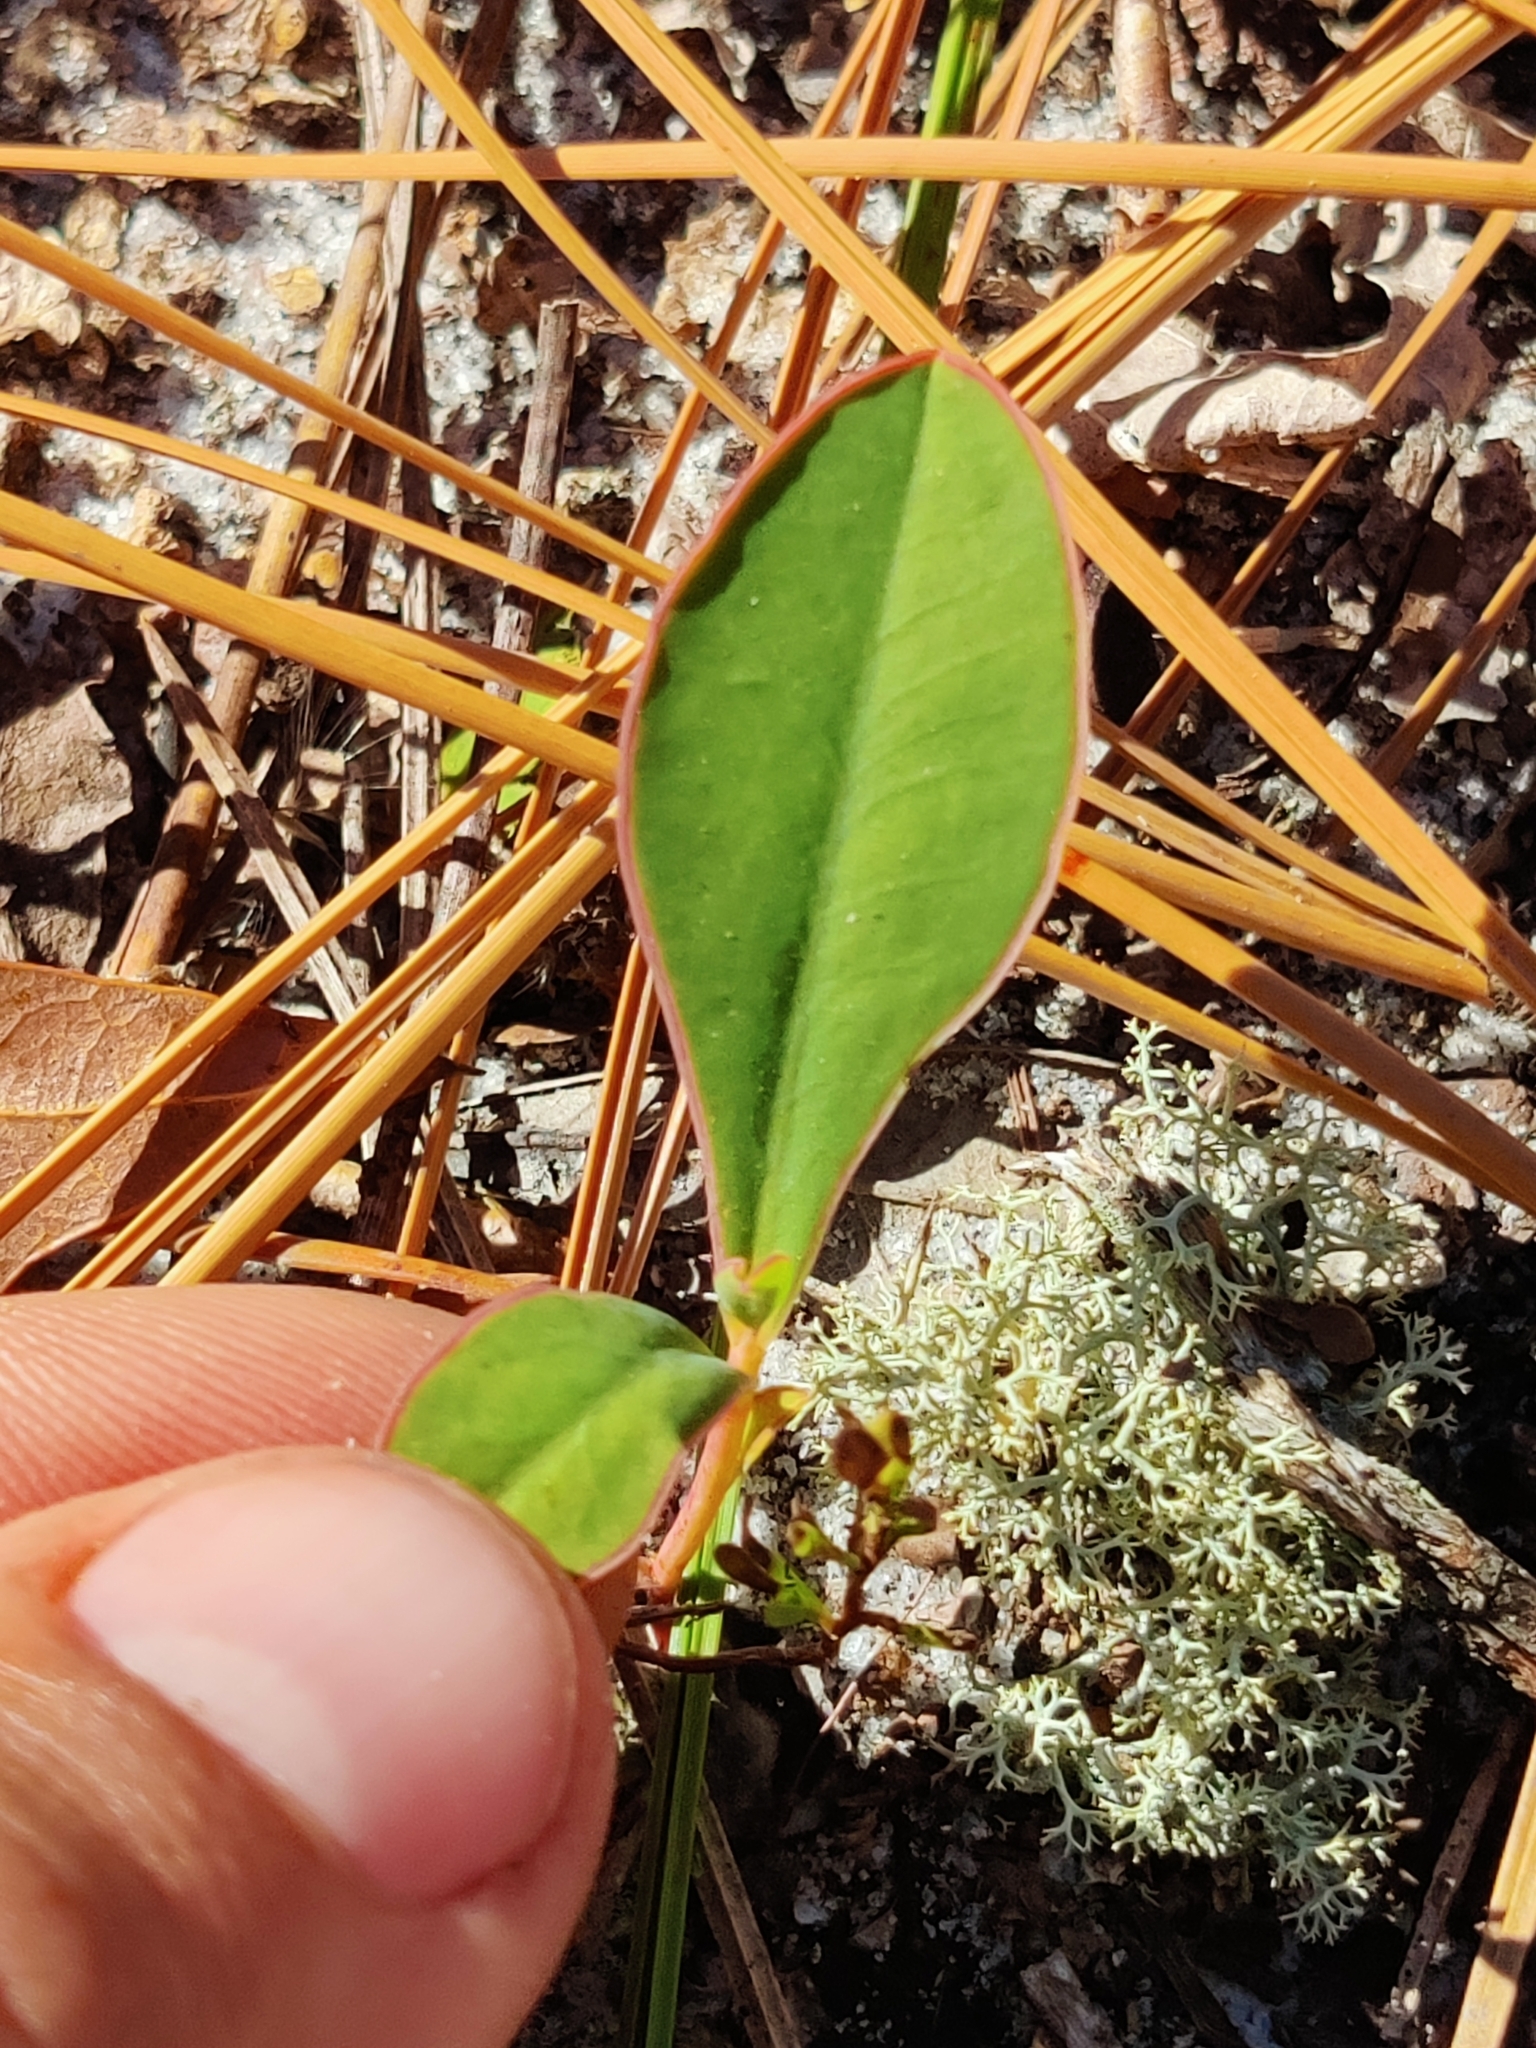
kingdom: Plantae
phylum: Tracheophyta
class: Magnoliopsida
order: Malpighiales
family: Euphorbiaceae
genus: Euphorbia
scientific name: Euphorbia telephioides
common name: Telephus spurge
